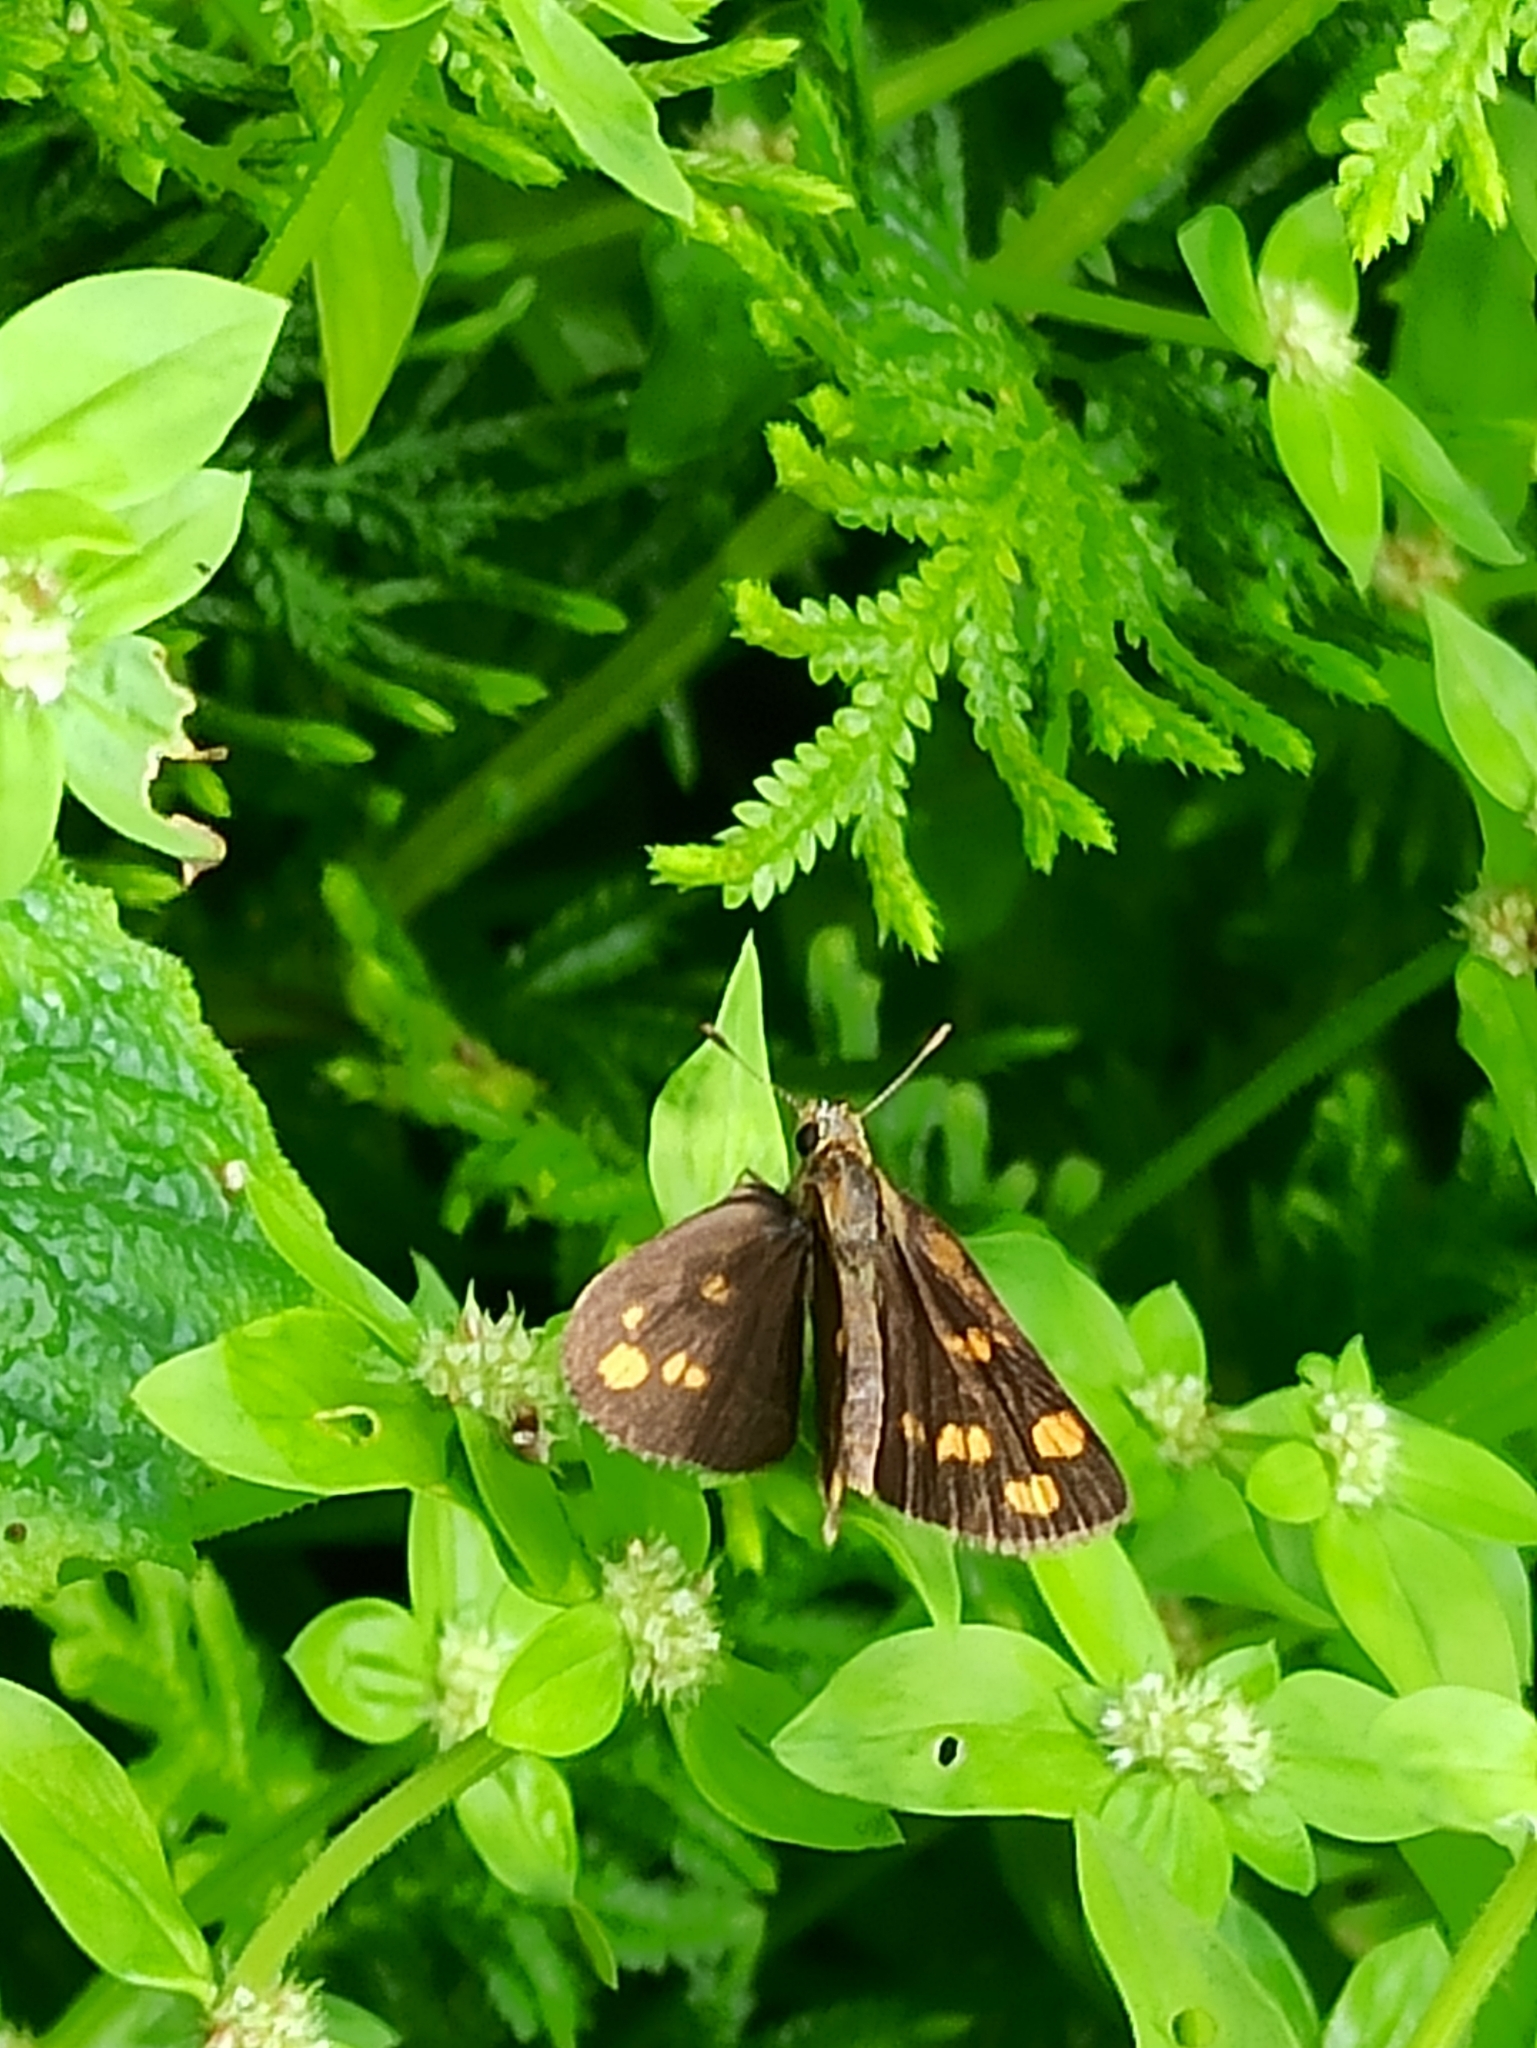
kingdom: Animalia
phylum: Arthropoda
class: Insecta
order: Lepidoptera
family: Hesperiidae
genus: Taractrocera
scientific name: Taractrocera ceramas
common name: Tamil grass dart
